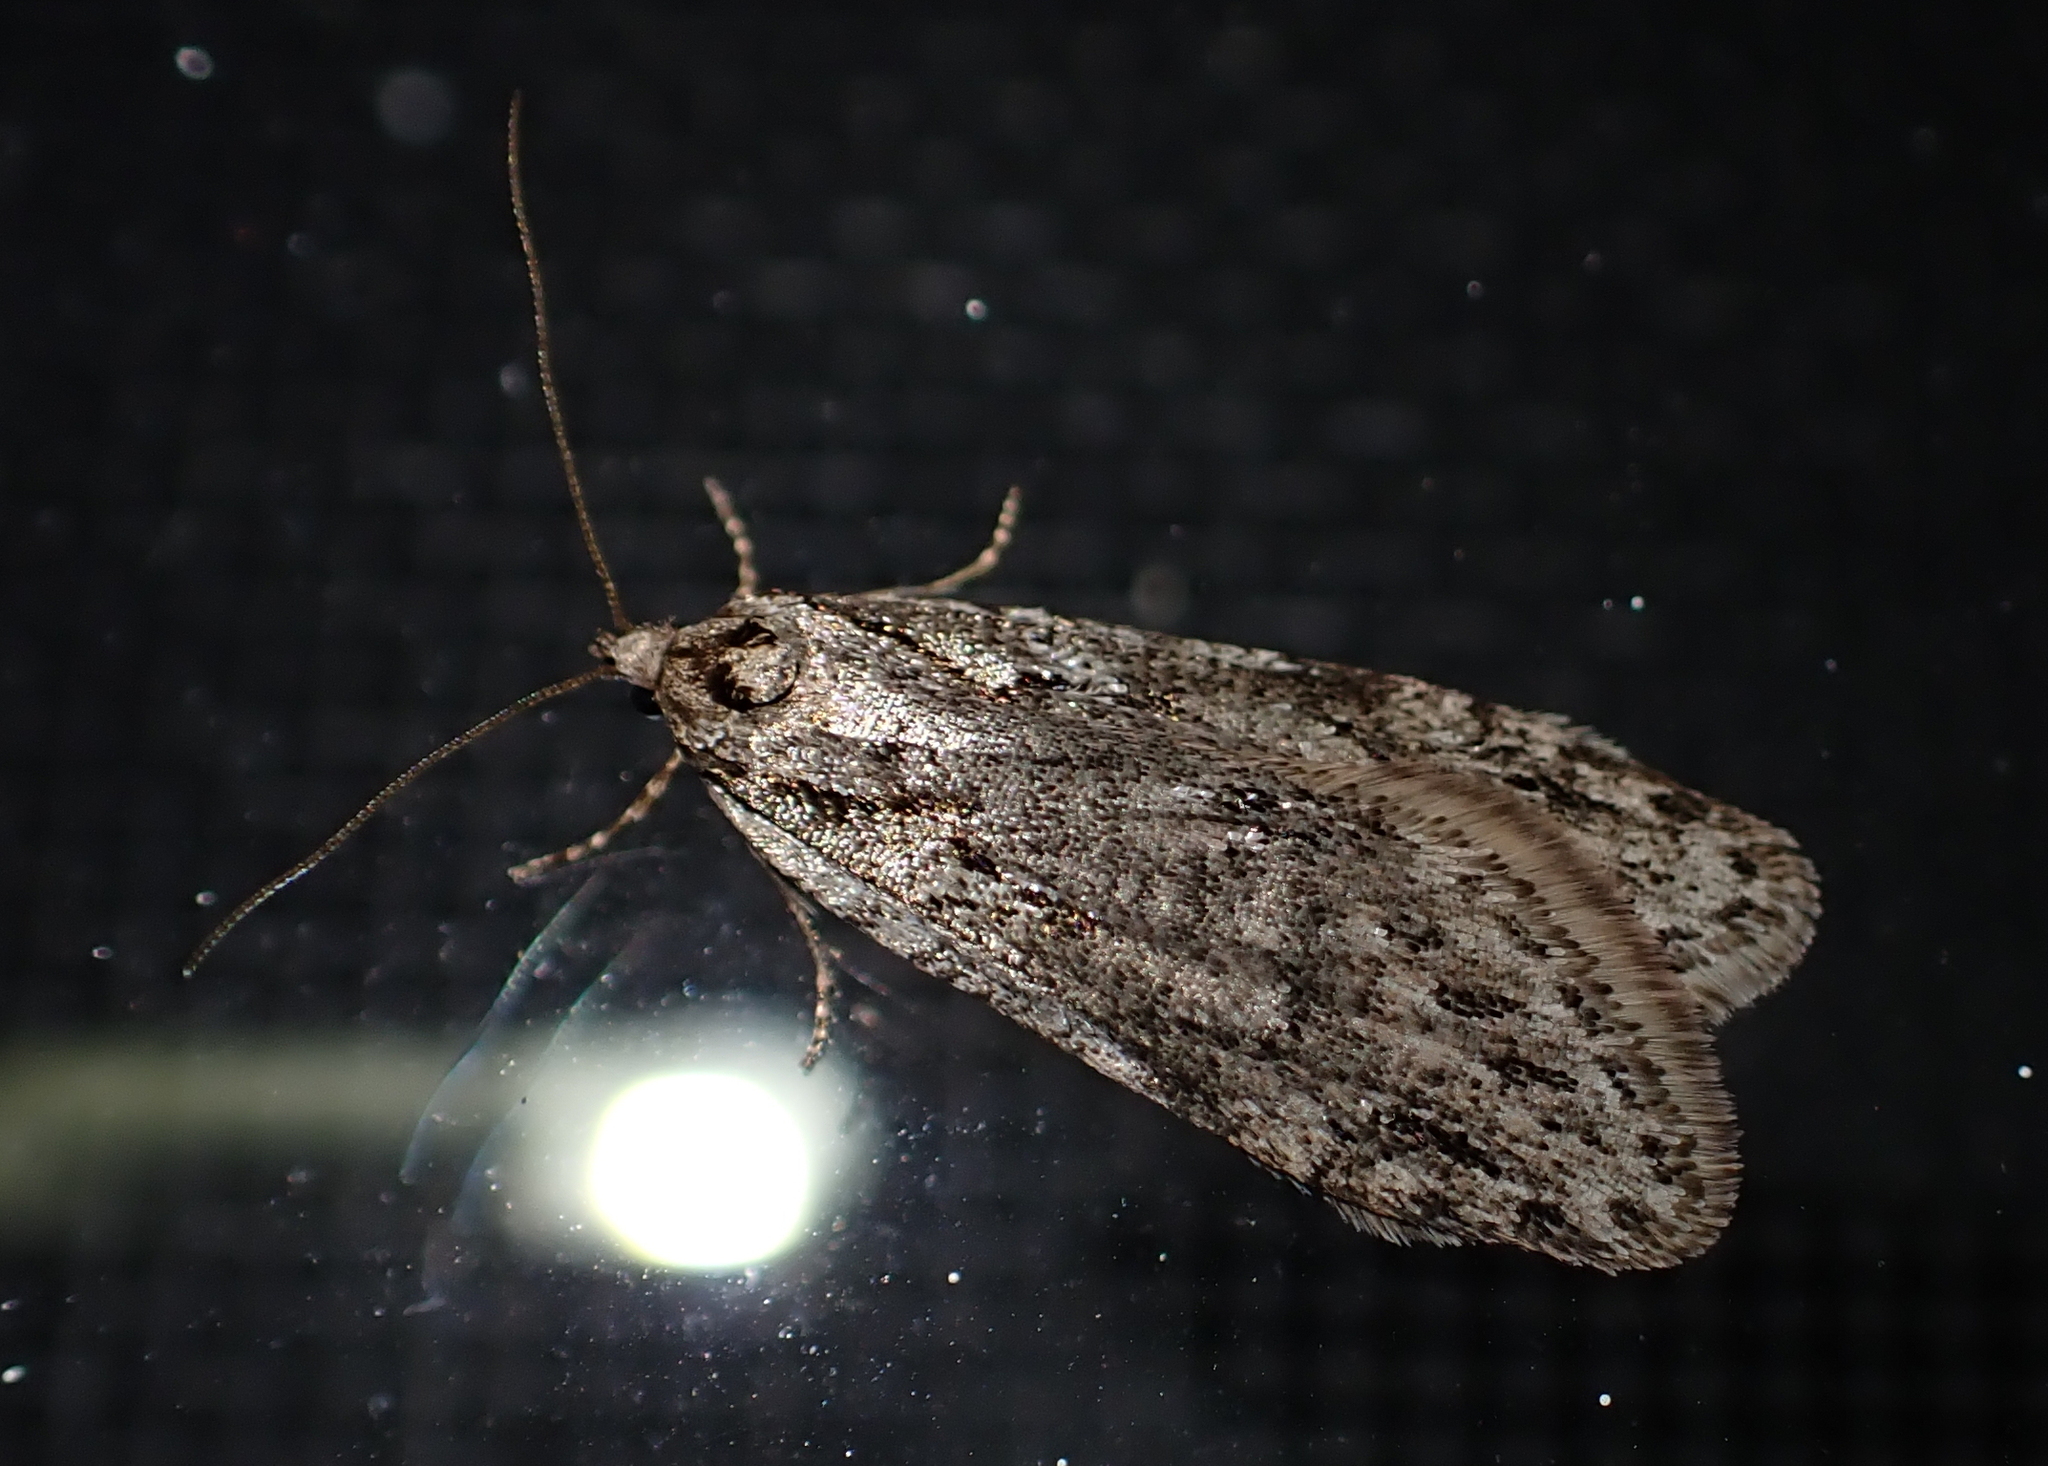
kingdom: Animalia
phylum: Arthropoda
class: Insecta
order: Lepidoptera
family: Depressariidae
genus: Semioscopis
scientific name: Semioscopis aurorella
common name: Aurora flatbody moth
